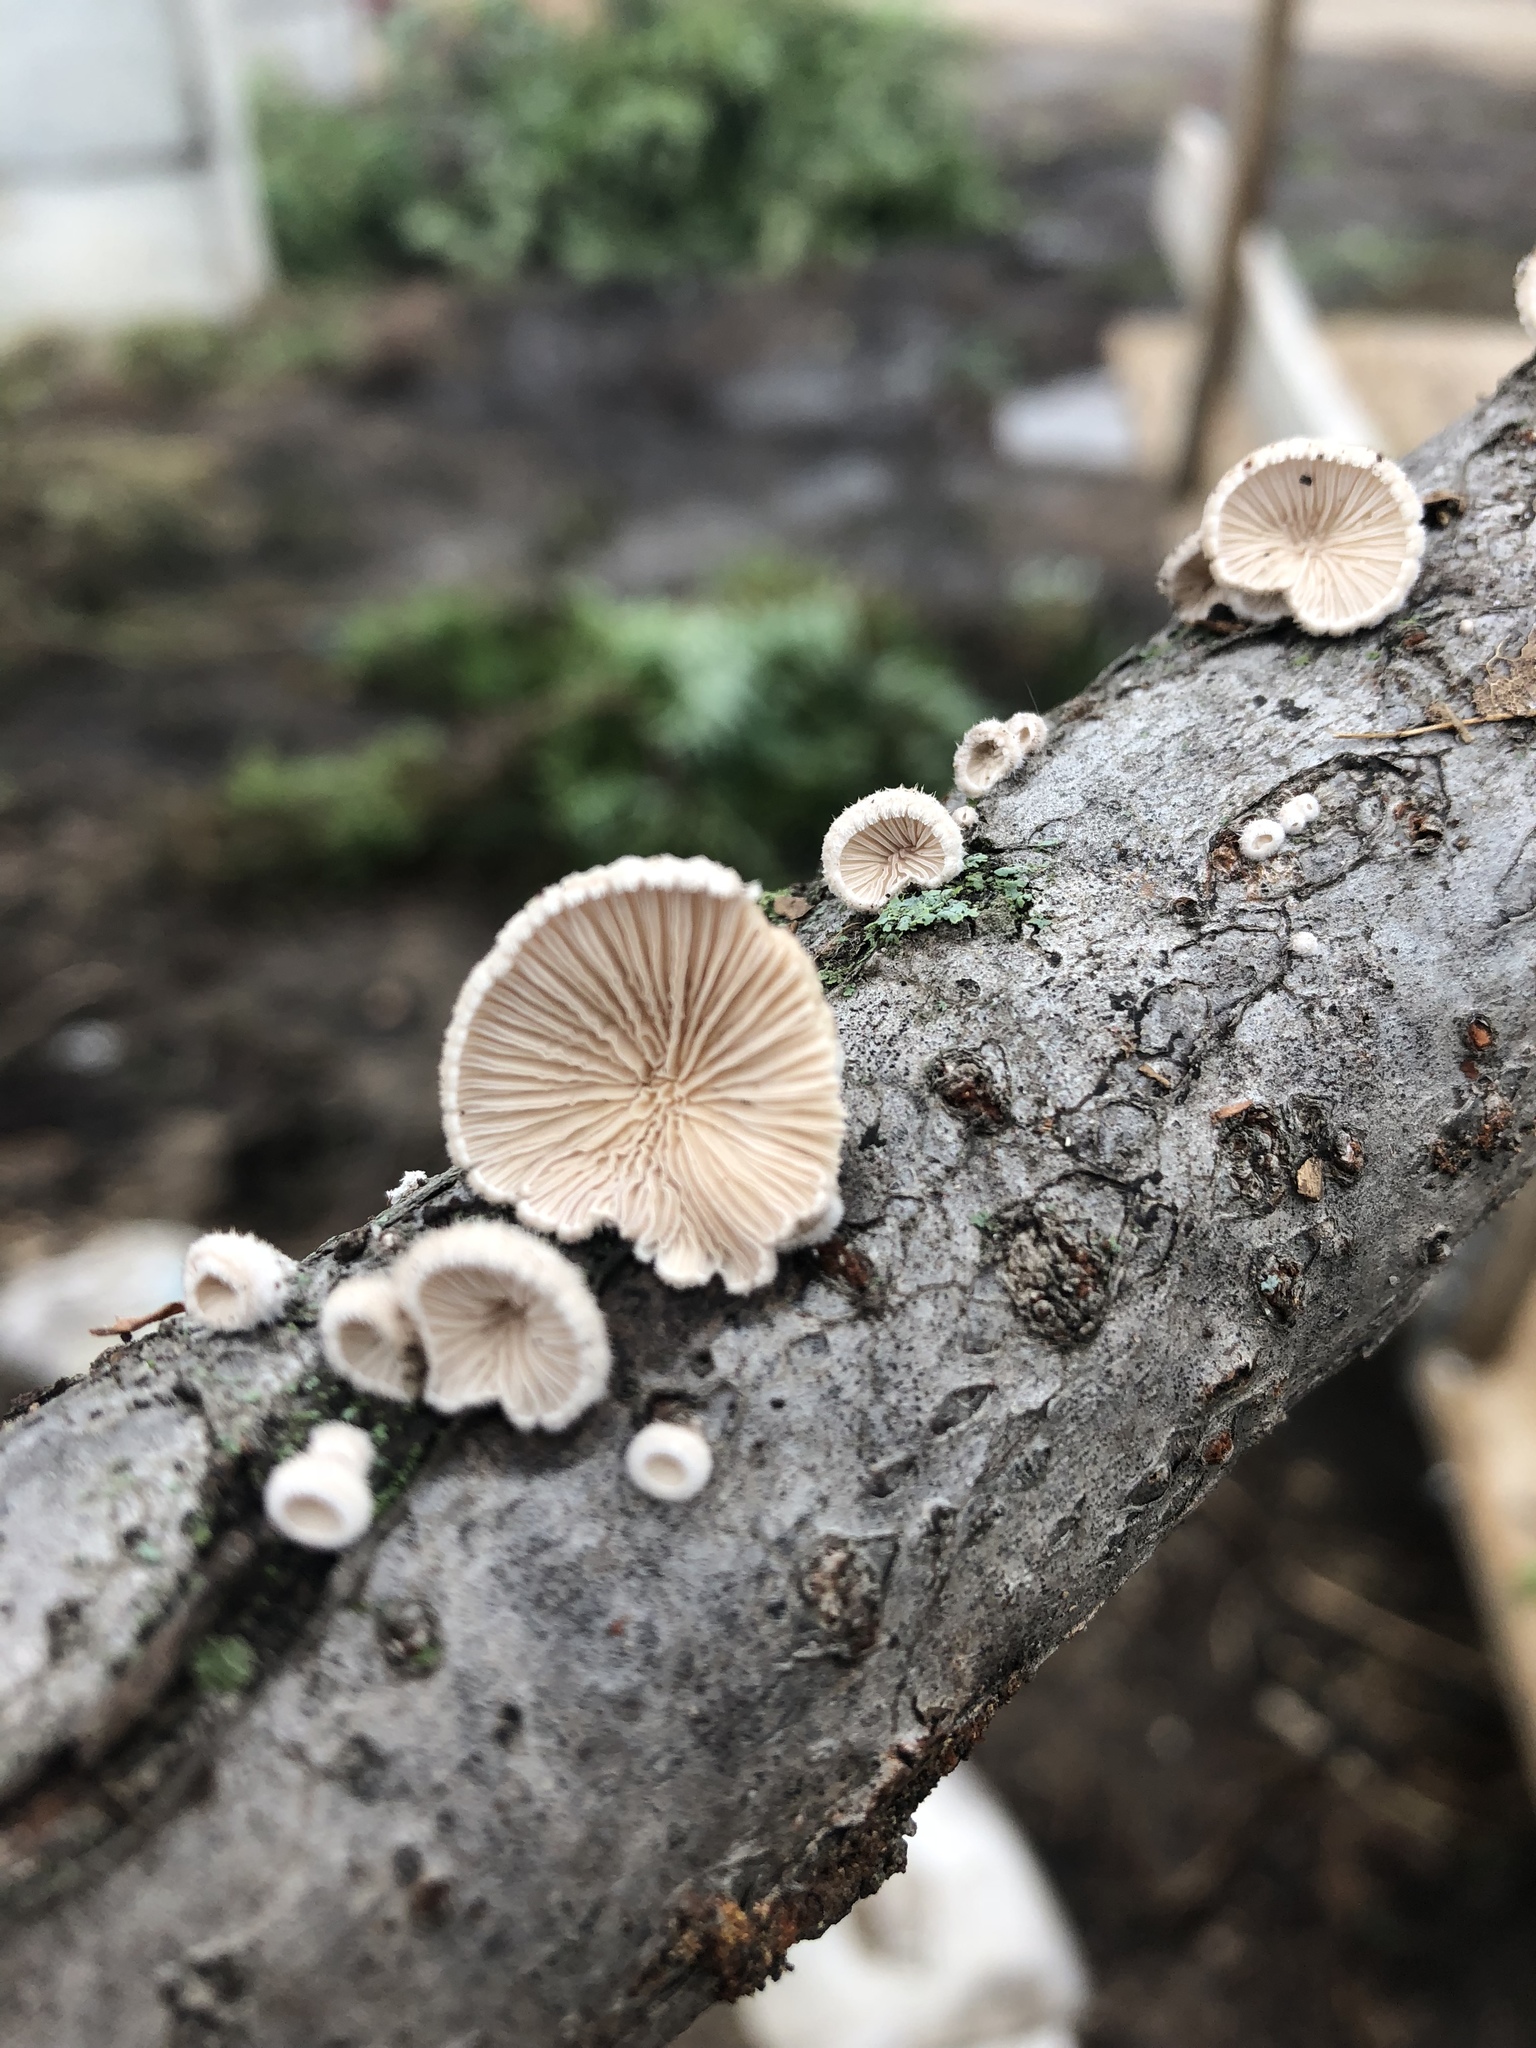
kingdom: Fungi
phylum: Basidiomycota
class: Agaricomycetes
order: Agaricales
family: Schizophyllaceae
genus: Schizophyllum
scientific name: Schizophyllum commune
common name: Common porecrust
